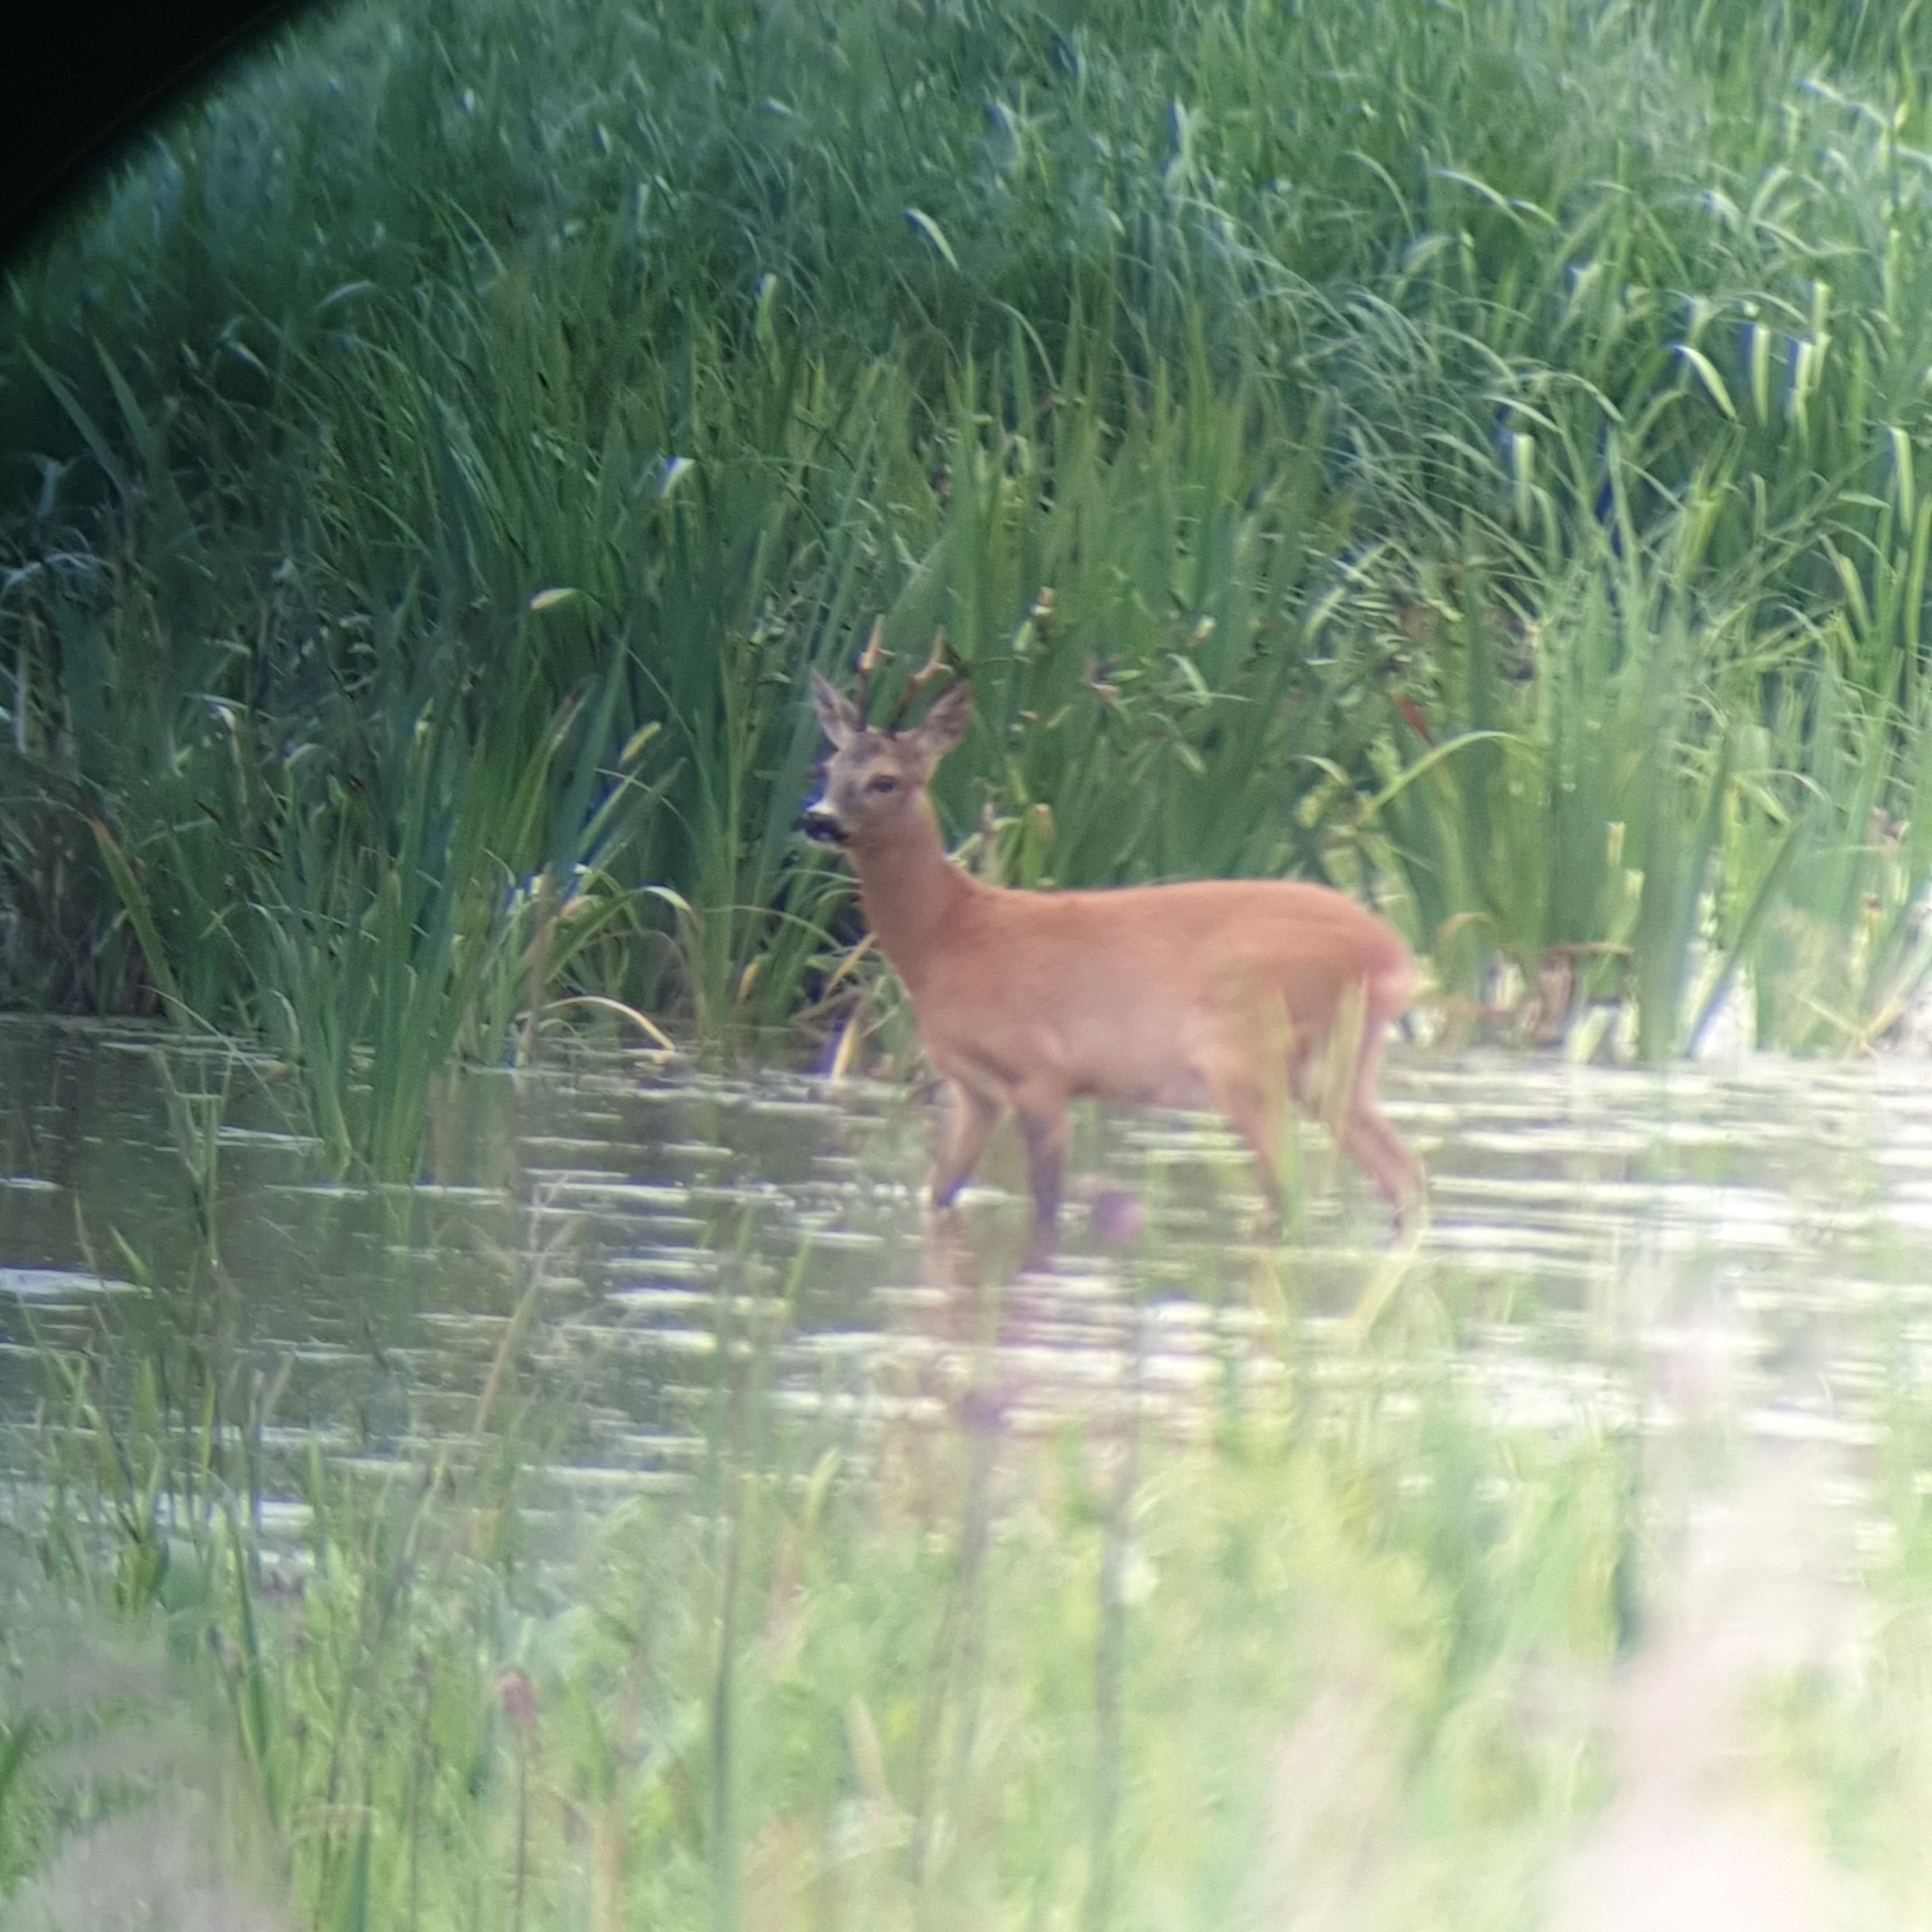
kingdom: Animalia
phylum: Chordata
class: Mammalia
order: Artiodactyla
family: Cervidae
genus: Capreolus
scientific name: Capreolus capreolus
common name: Western roe deer
